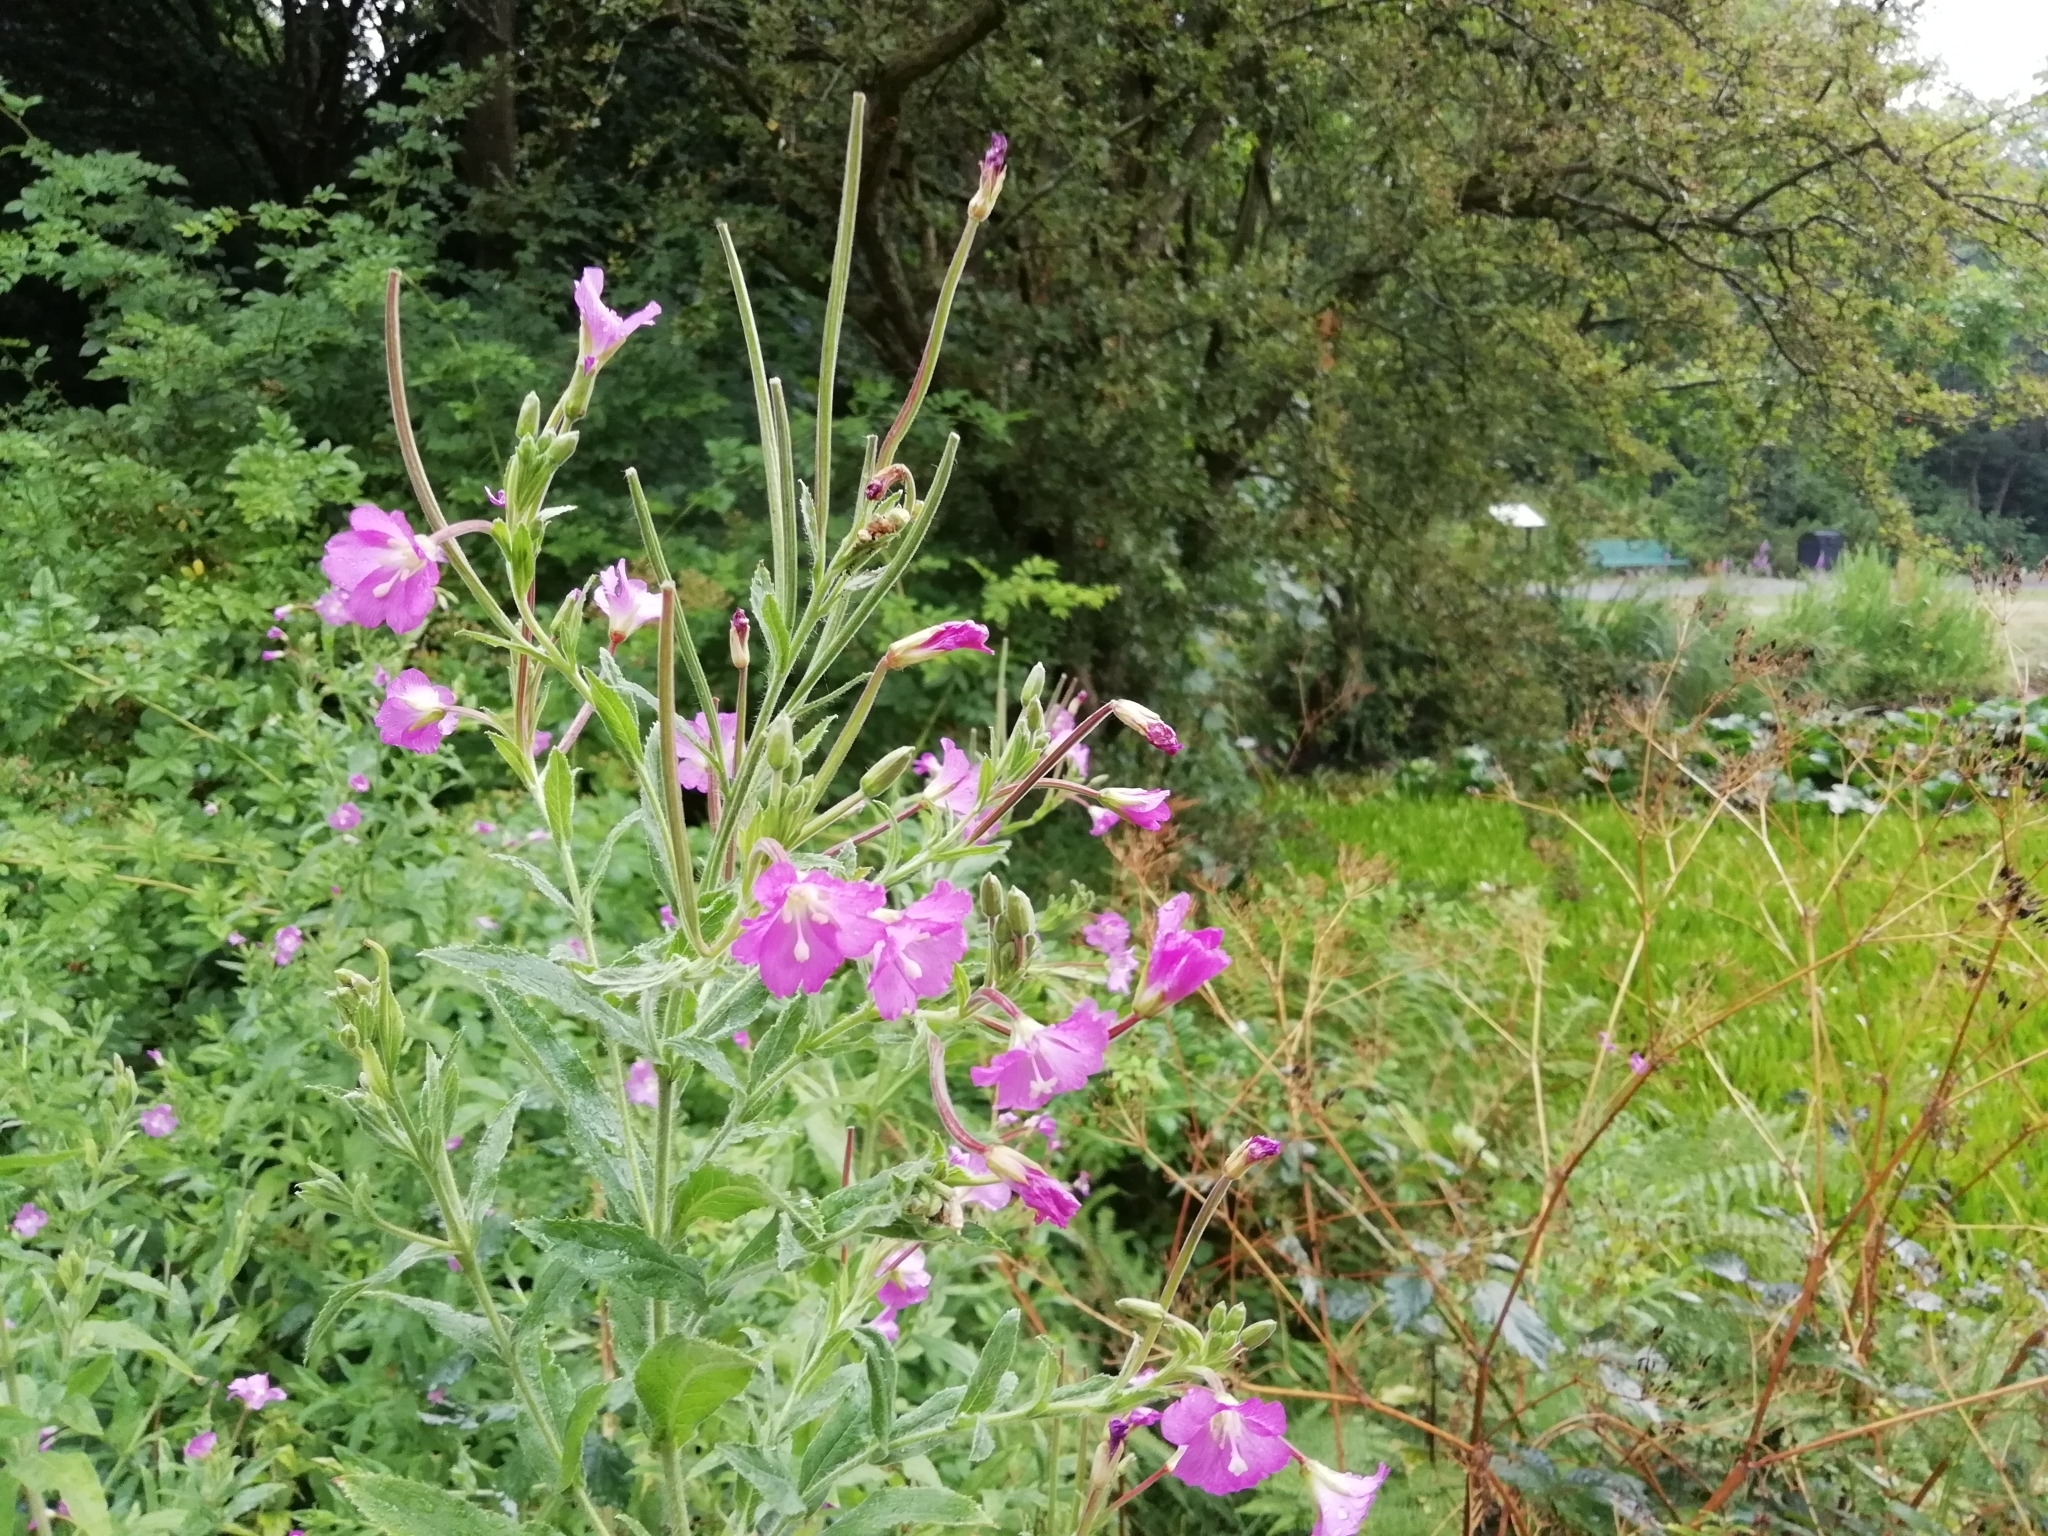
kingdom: Plantae
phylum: Tracheophyta
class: Magnoliopsida
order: Myrtales
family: Onagraceae
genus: Epilobium
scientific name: Epilobium hirsutum
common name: Great willowherb
